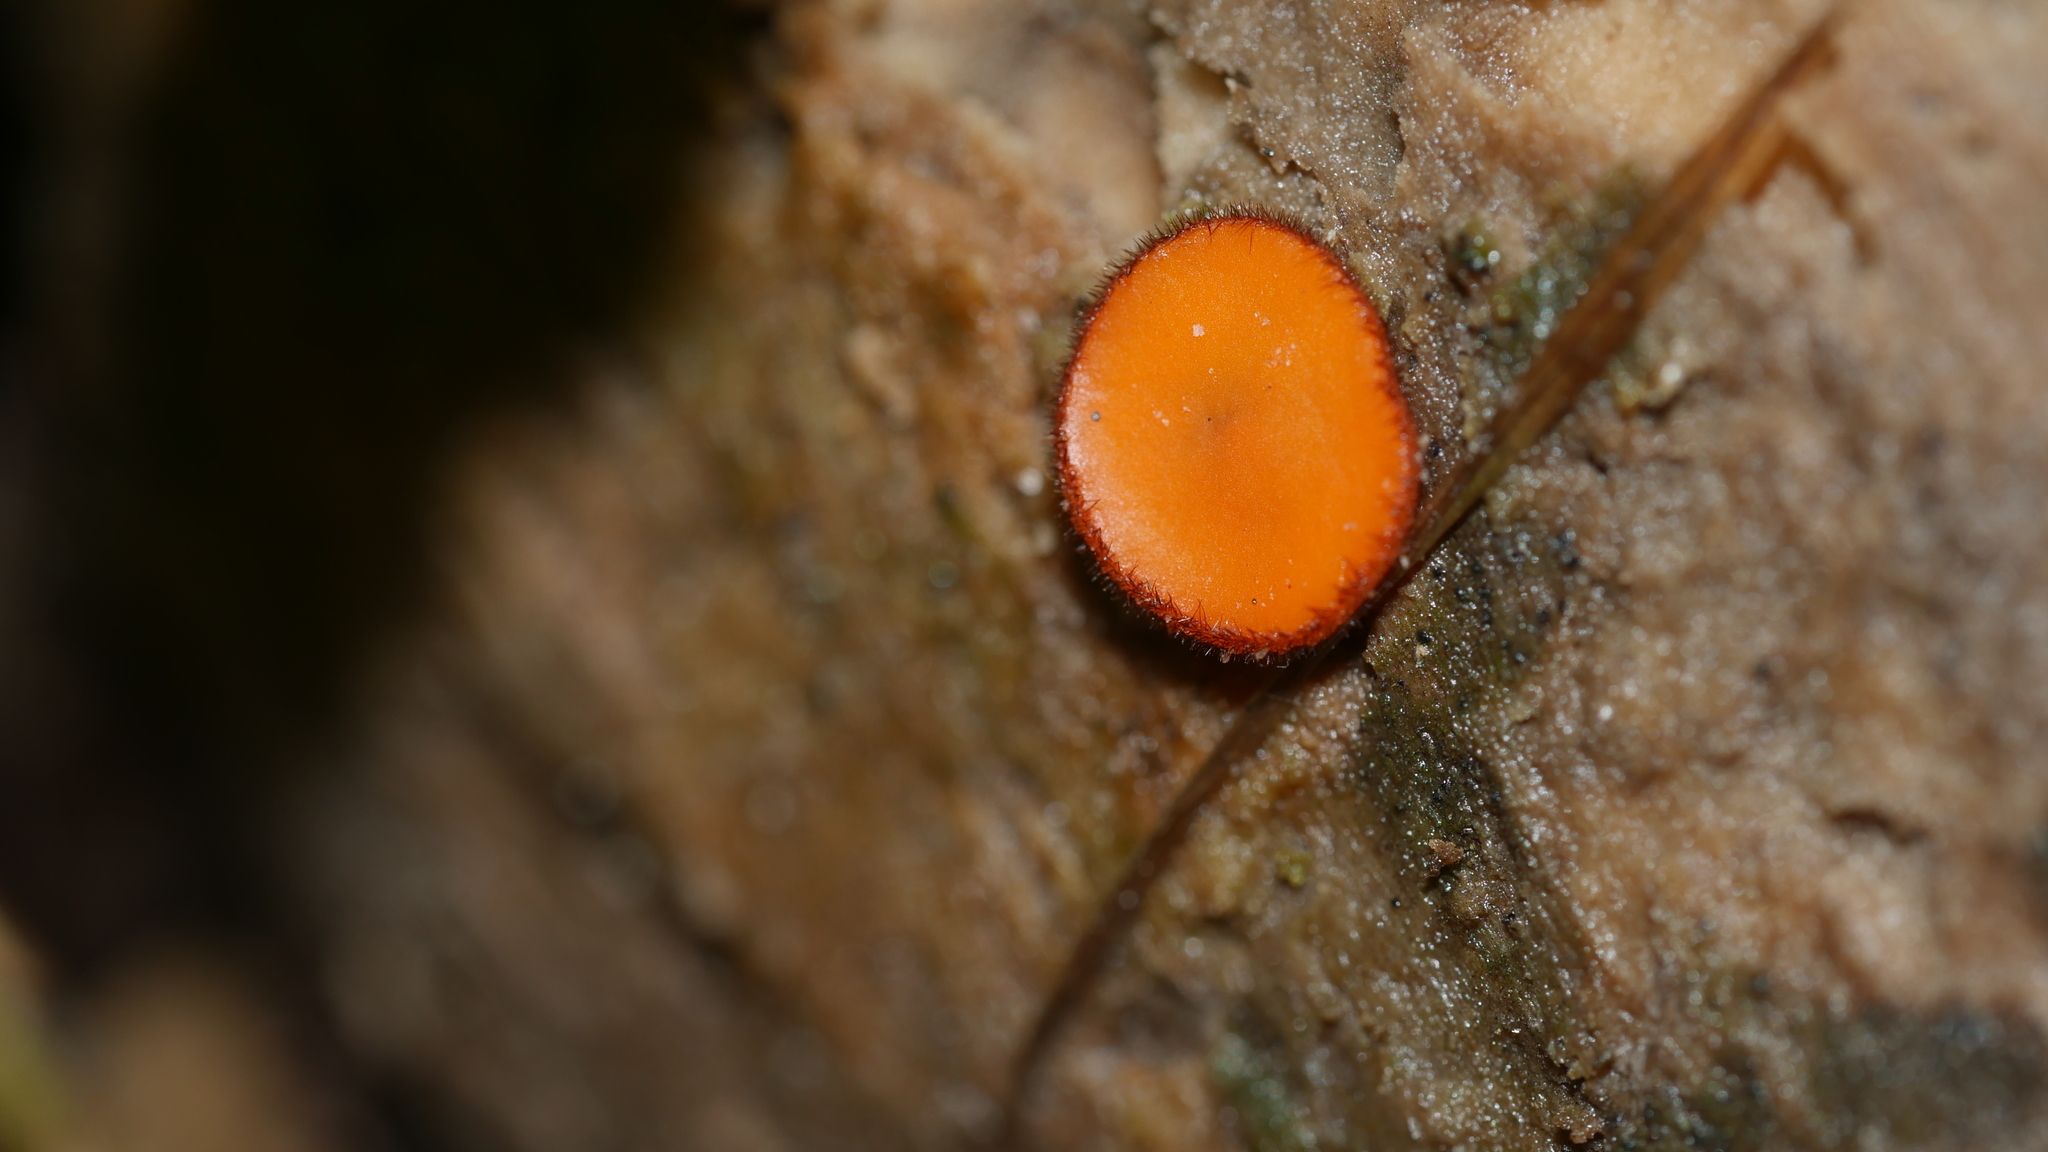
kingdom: Fungi
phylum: Ascomycota
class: Pezizomycetes
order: Pezizales
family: Pyronemataceae
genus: Scutellinia
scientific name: Scutellinia
